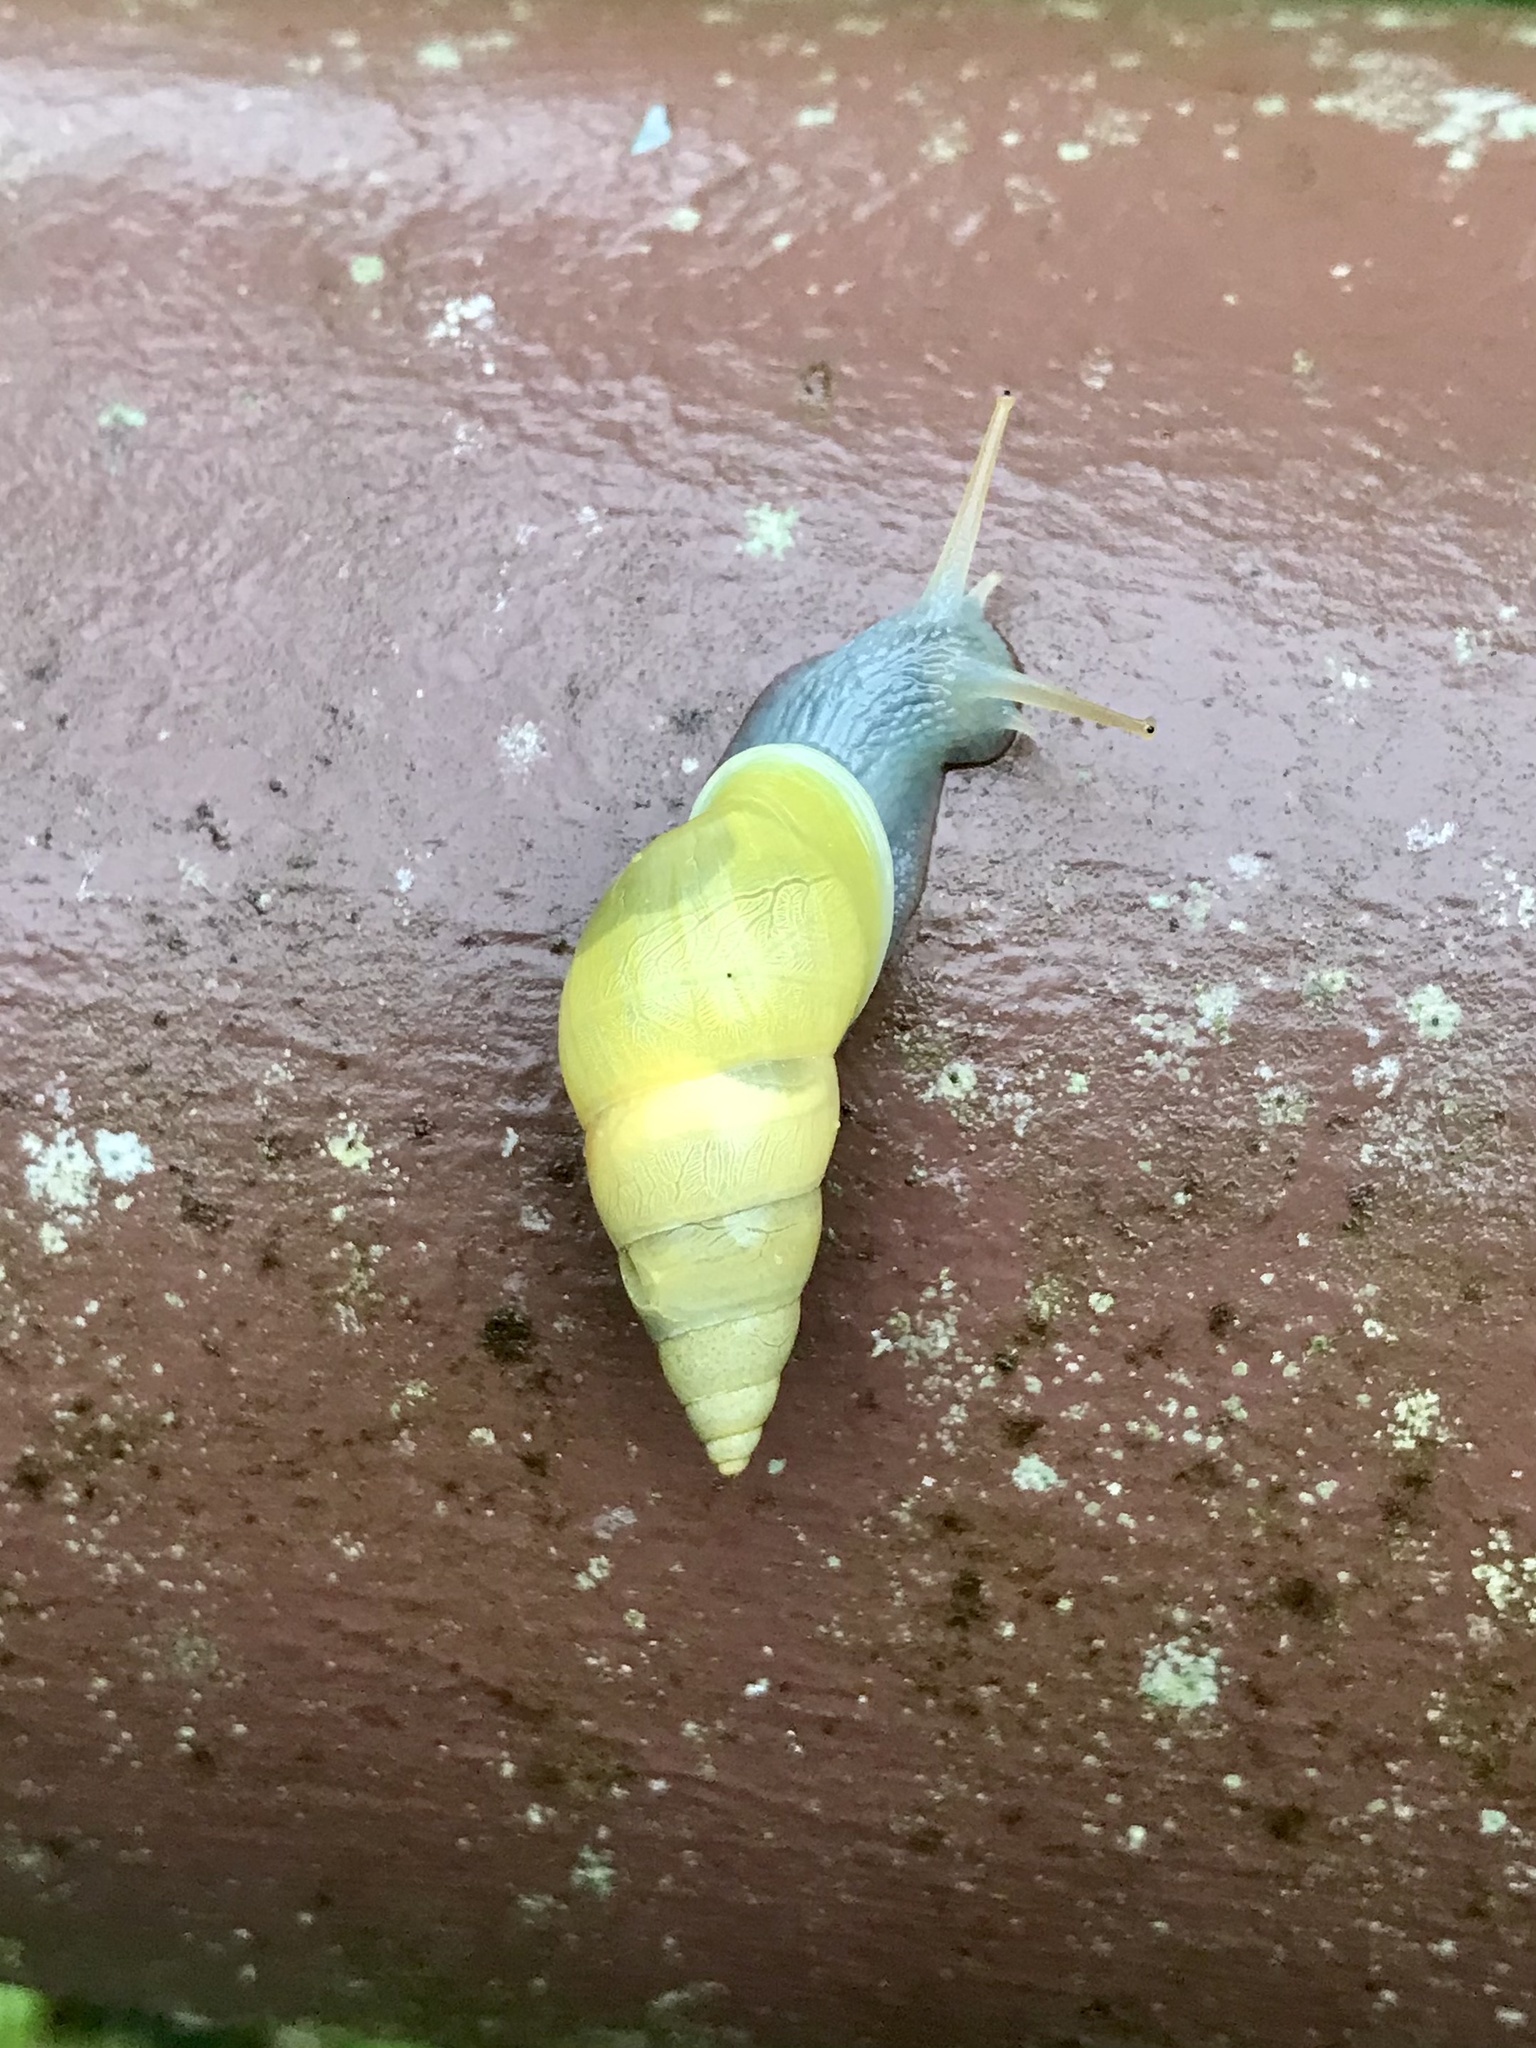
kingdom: Animalia
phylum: Mollusca
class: Gastropoda
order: Stylommatophora
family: Bulimulidae
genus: Drymaeus
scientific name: Drymaeus sulphureus
